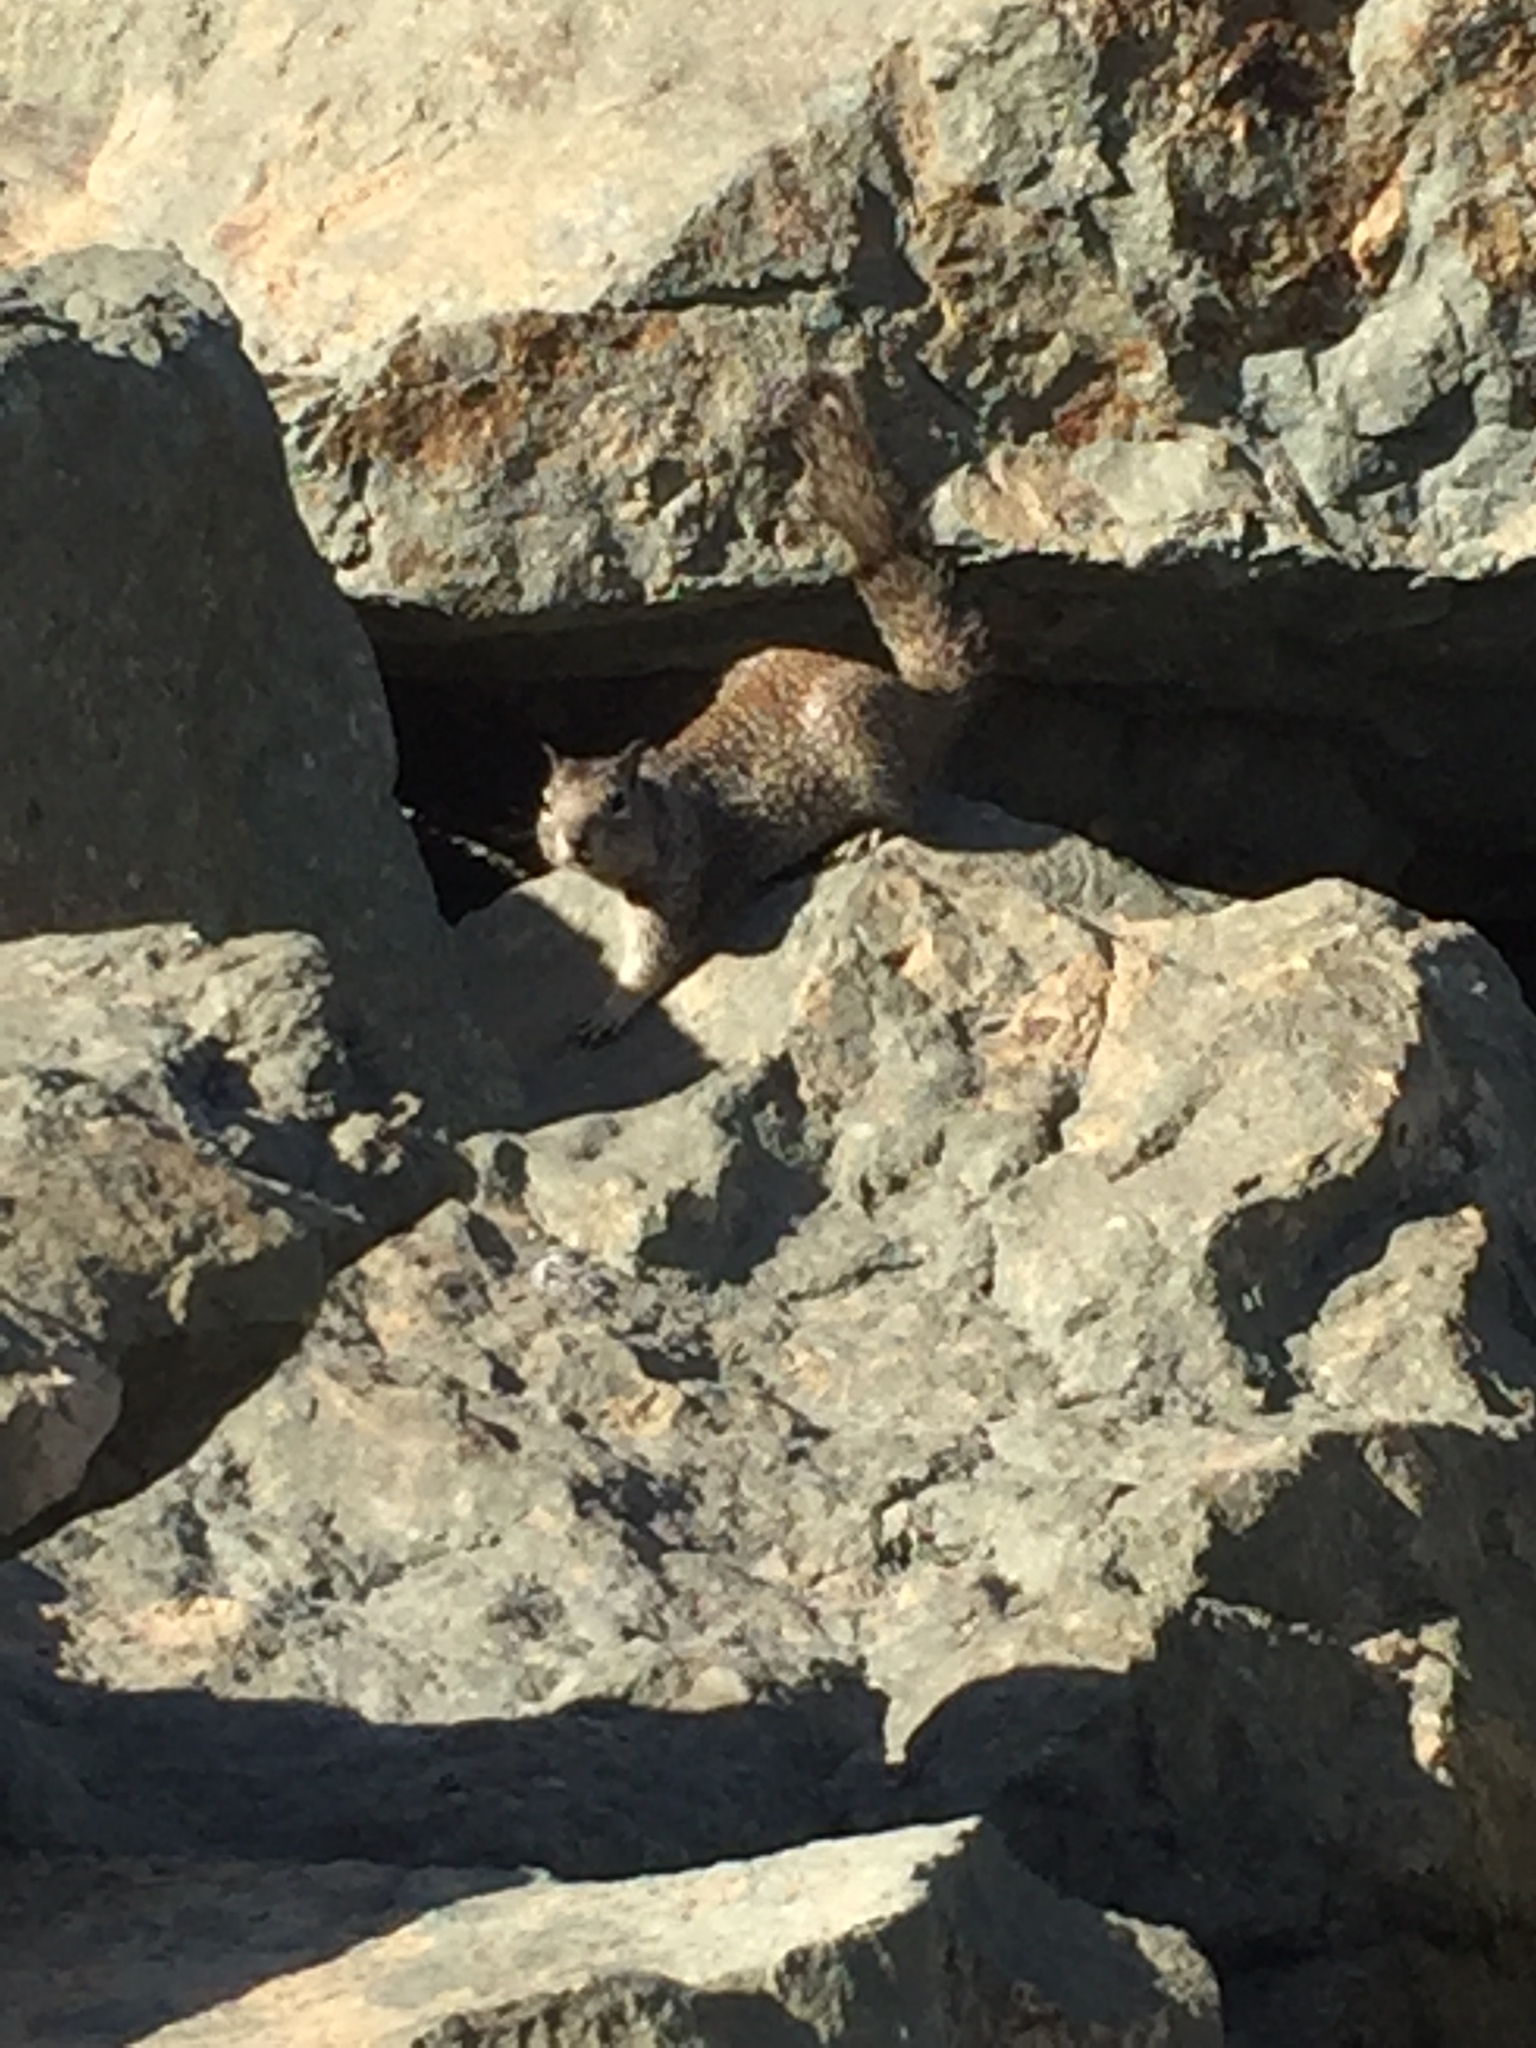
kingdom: Animalia
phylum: Chordata
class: Mammalia
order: Rodentia
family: Sciuridae
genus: Otospermophilus
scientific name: Otospermophilus beecheyi
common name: California ground squirrel
